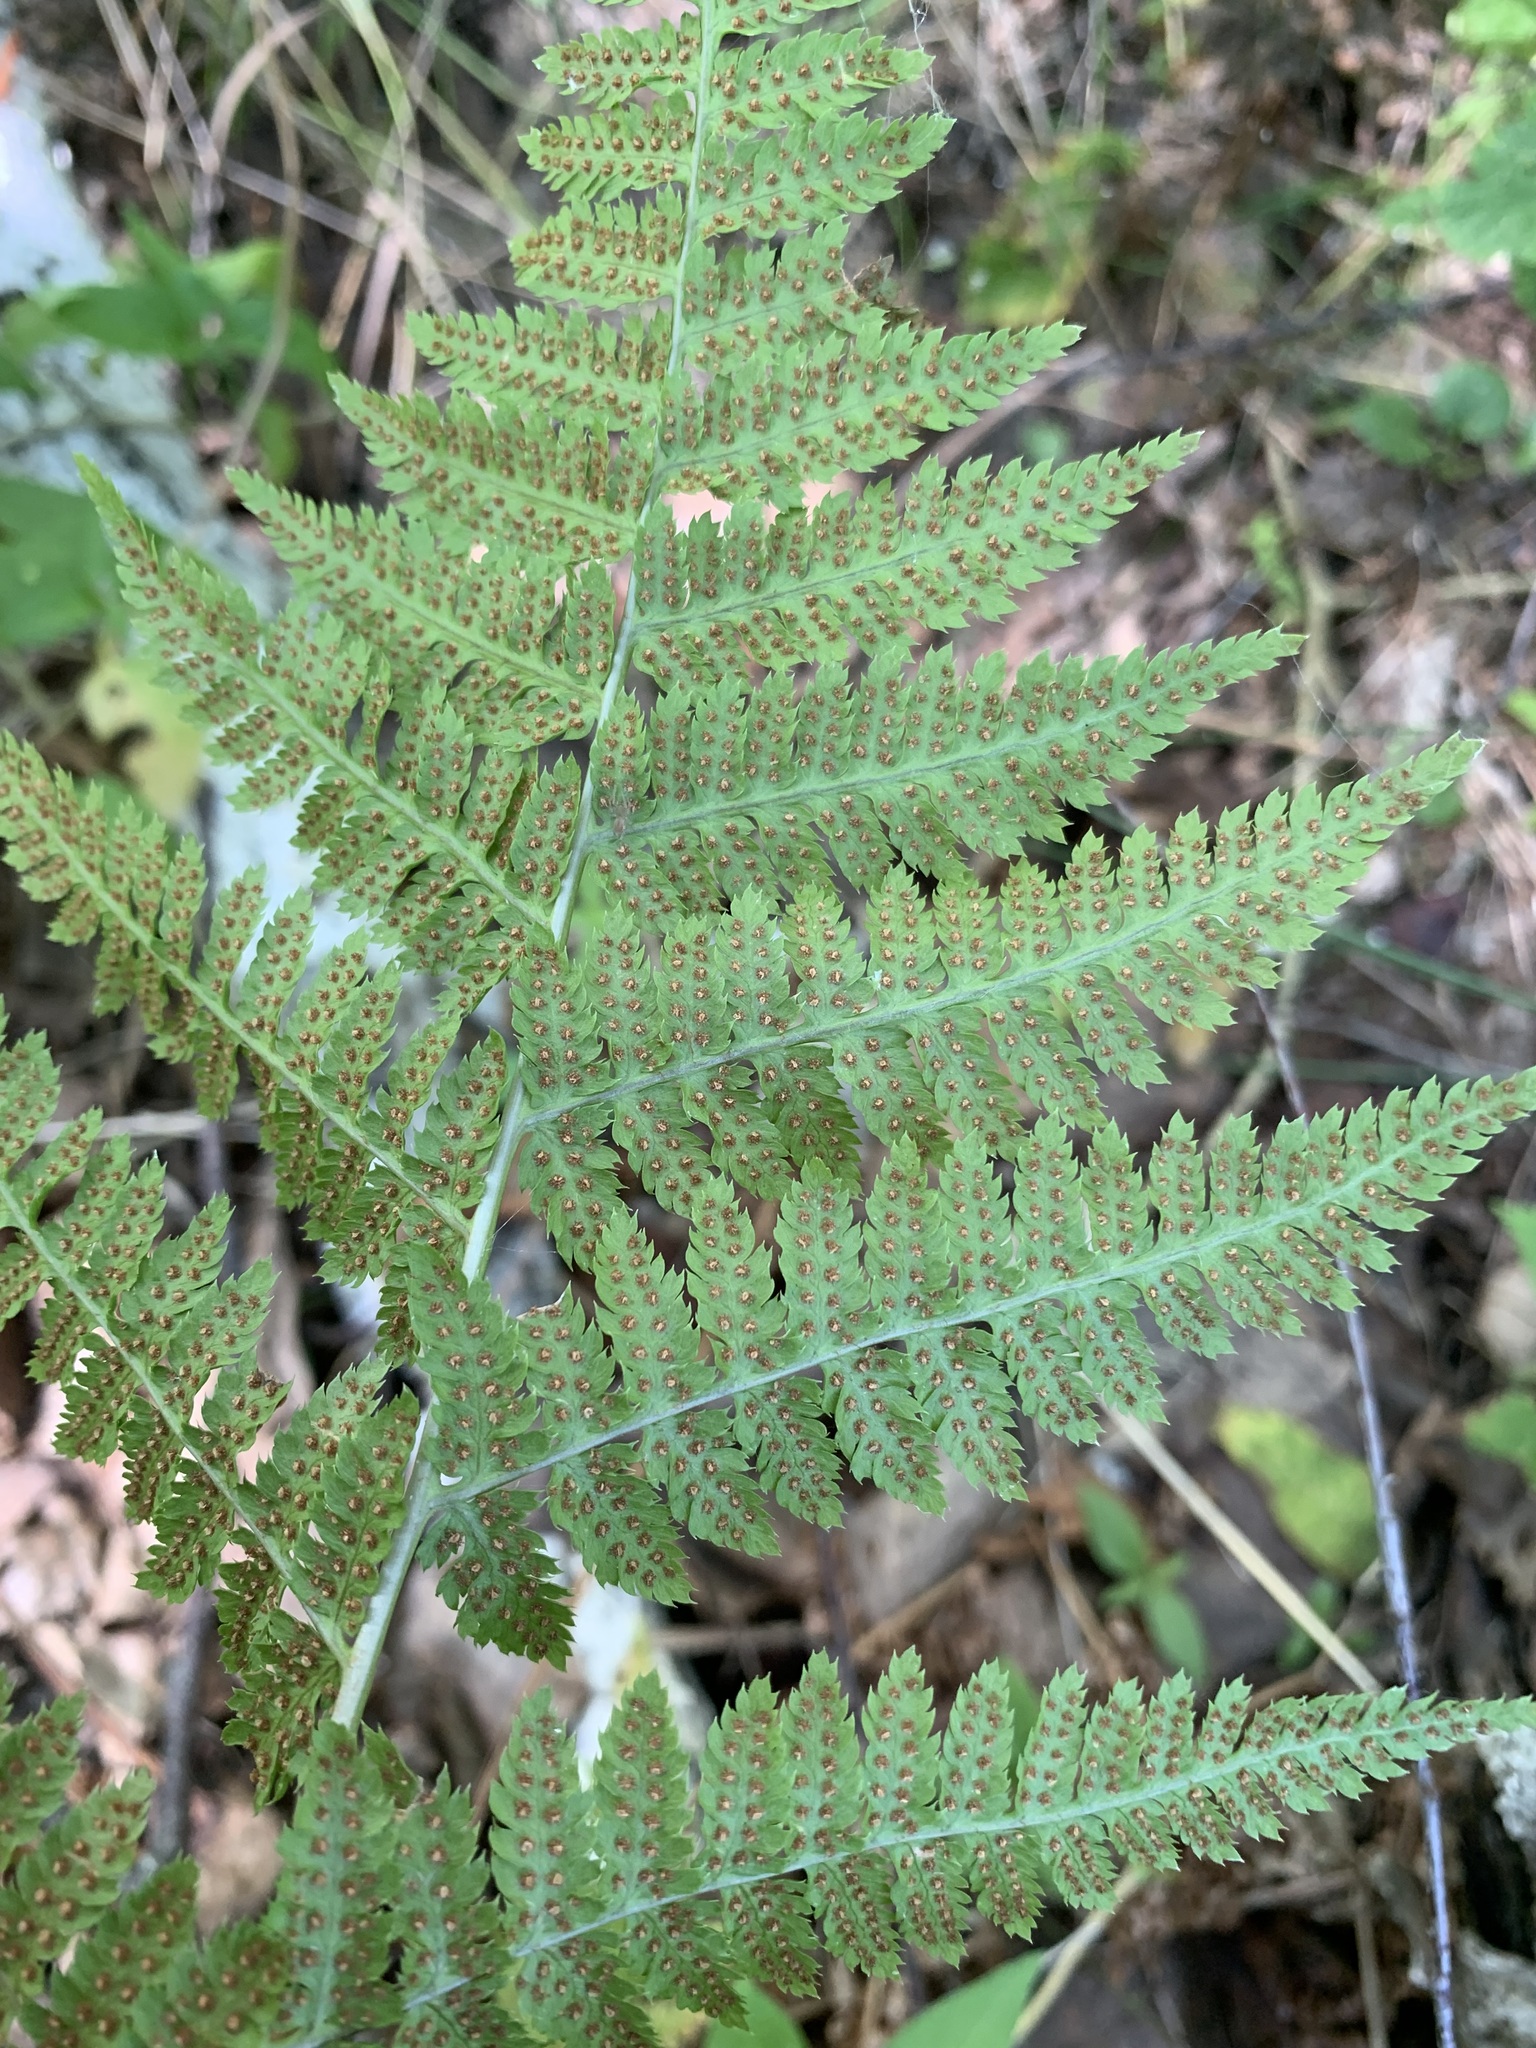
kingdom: Plantae
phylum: Tracheophyta
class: Polypodiopsida
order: Polypodiales
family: Dryopteridaceae
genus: Dryopteris
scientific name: Dryopteris carthusiana
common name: Narrow buckler-fern
